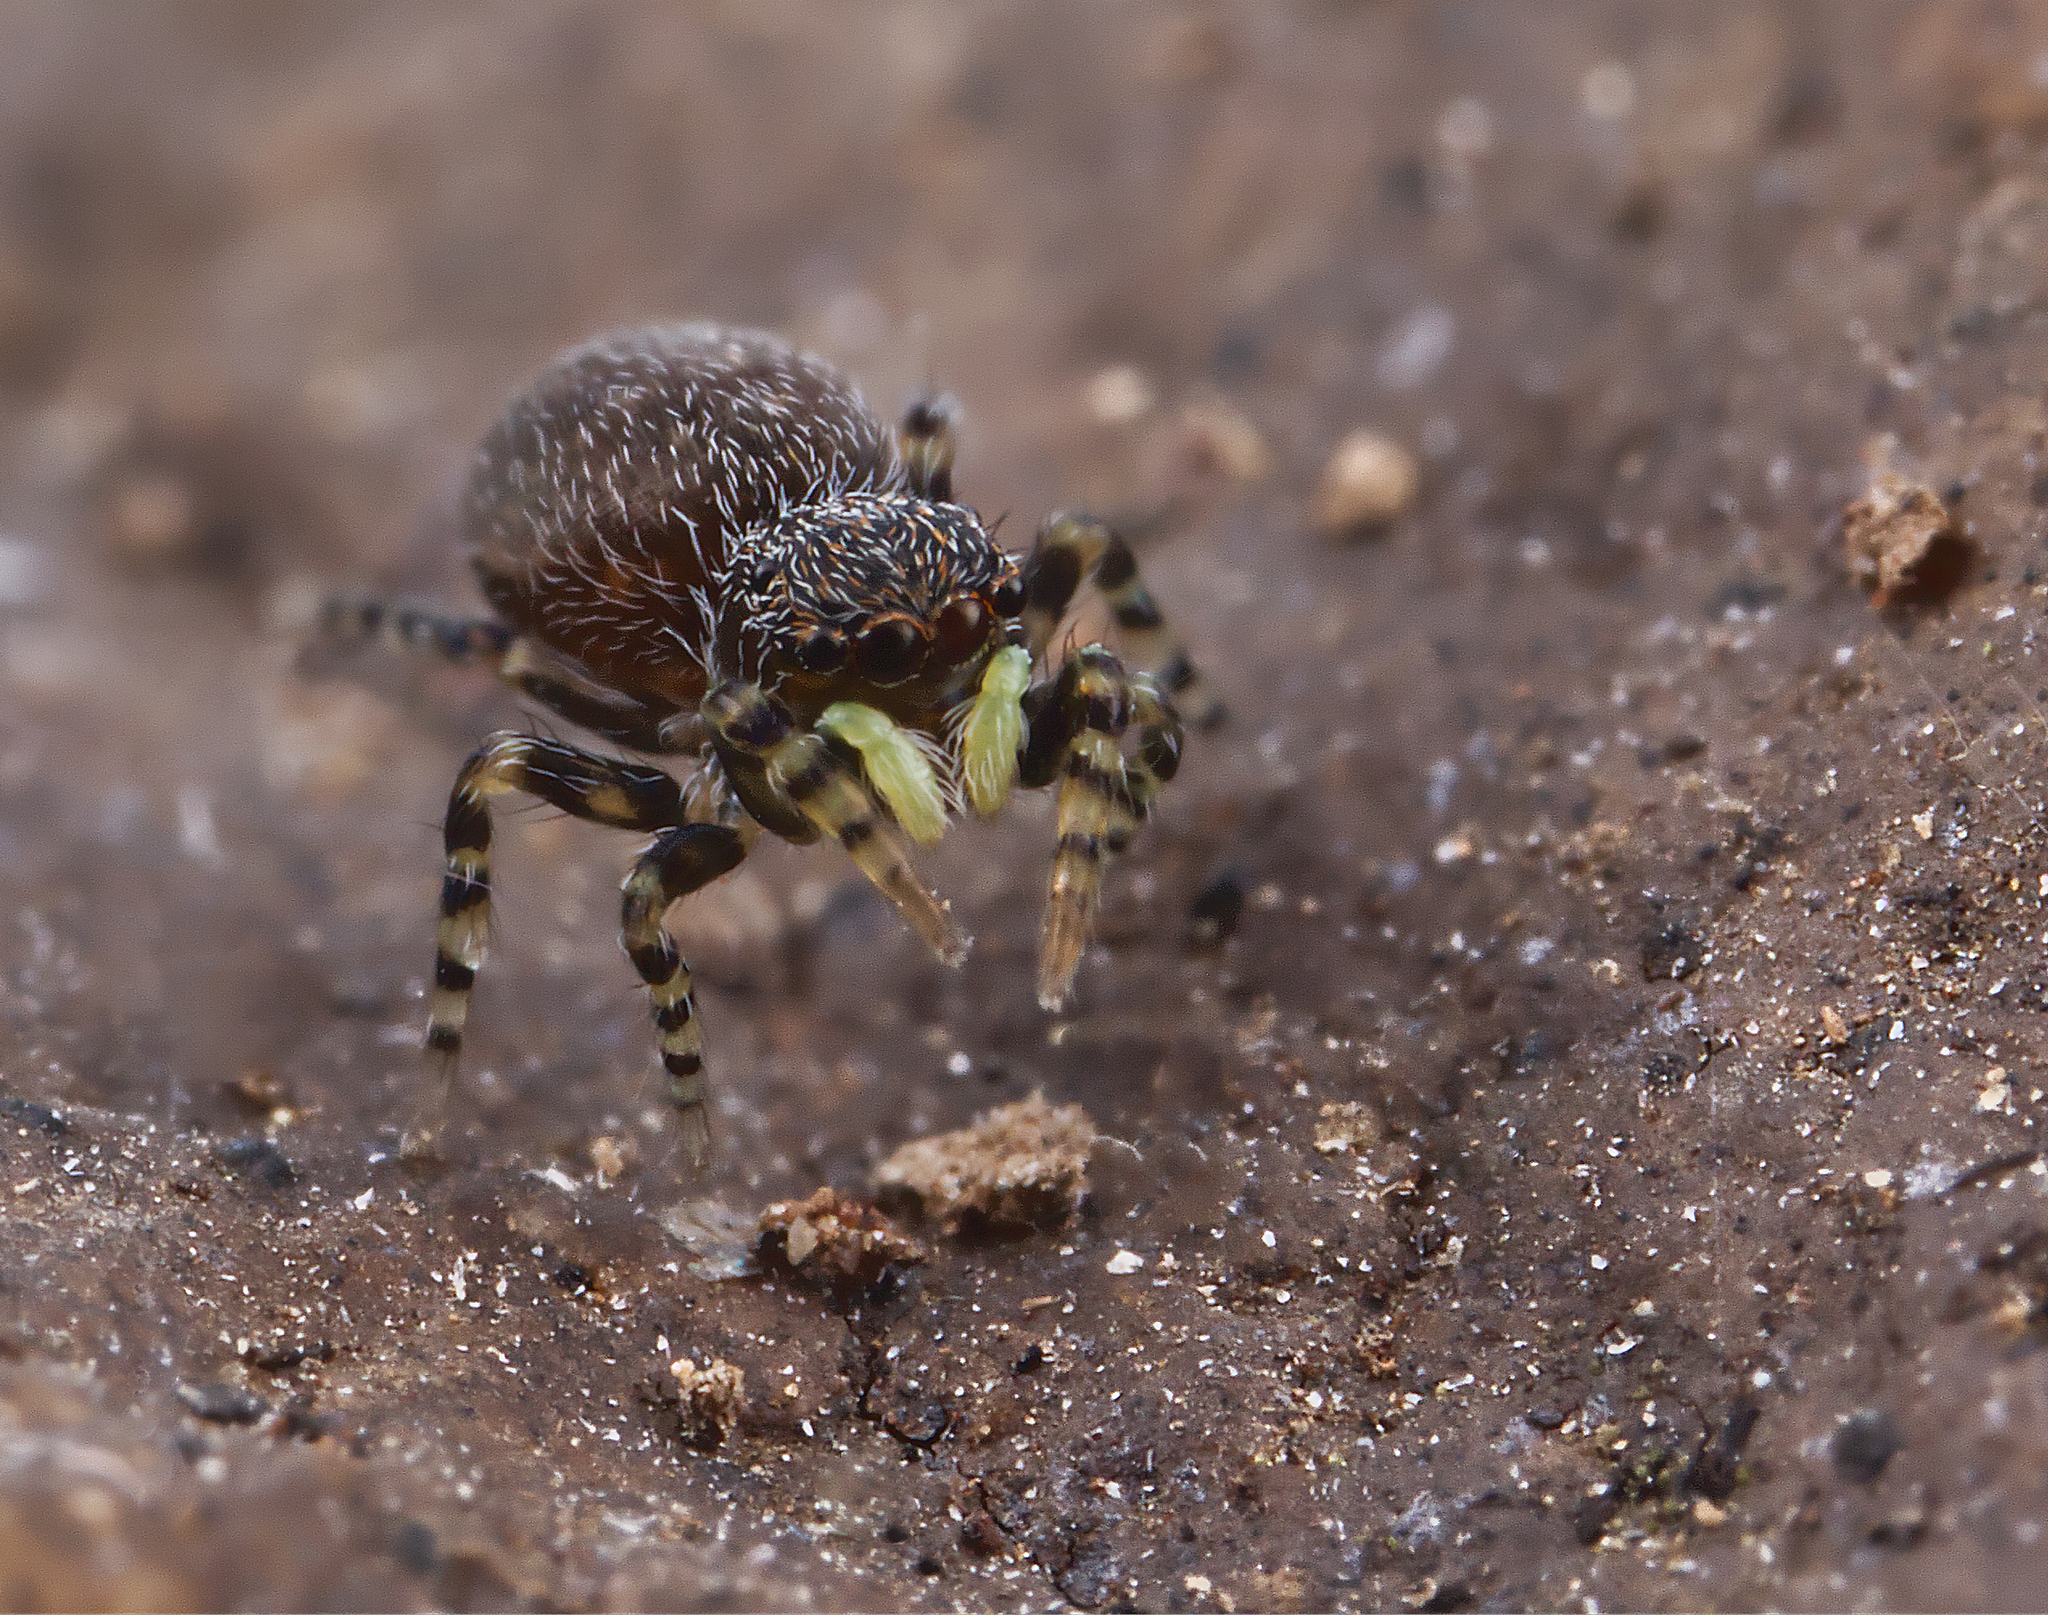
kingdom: Animalia
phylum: Arthropoda
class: Arachnida
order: Araneae
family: Salticidae
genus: Talavera
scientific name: Talavera minuta
